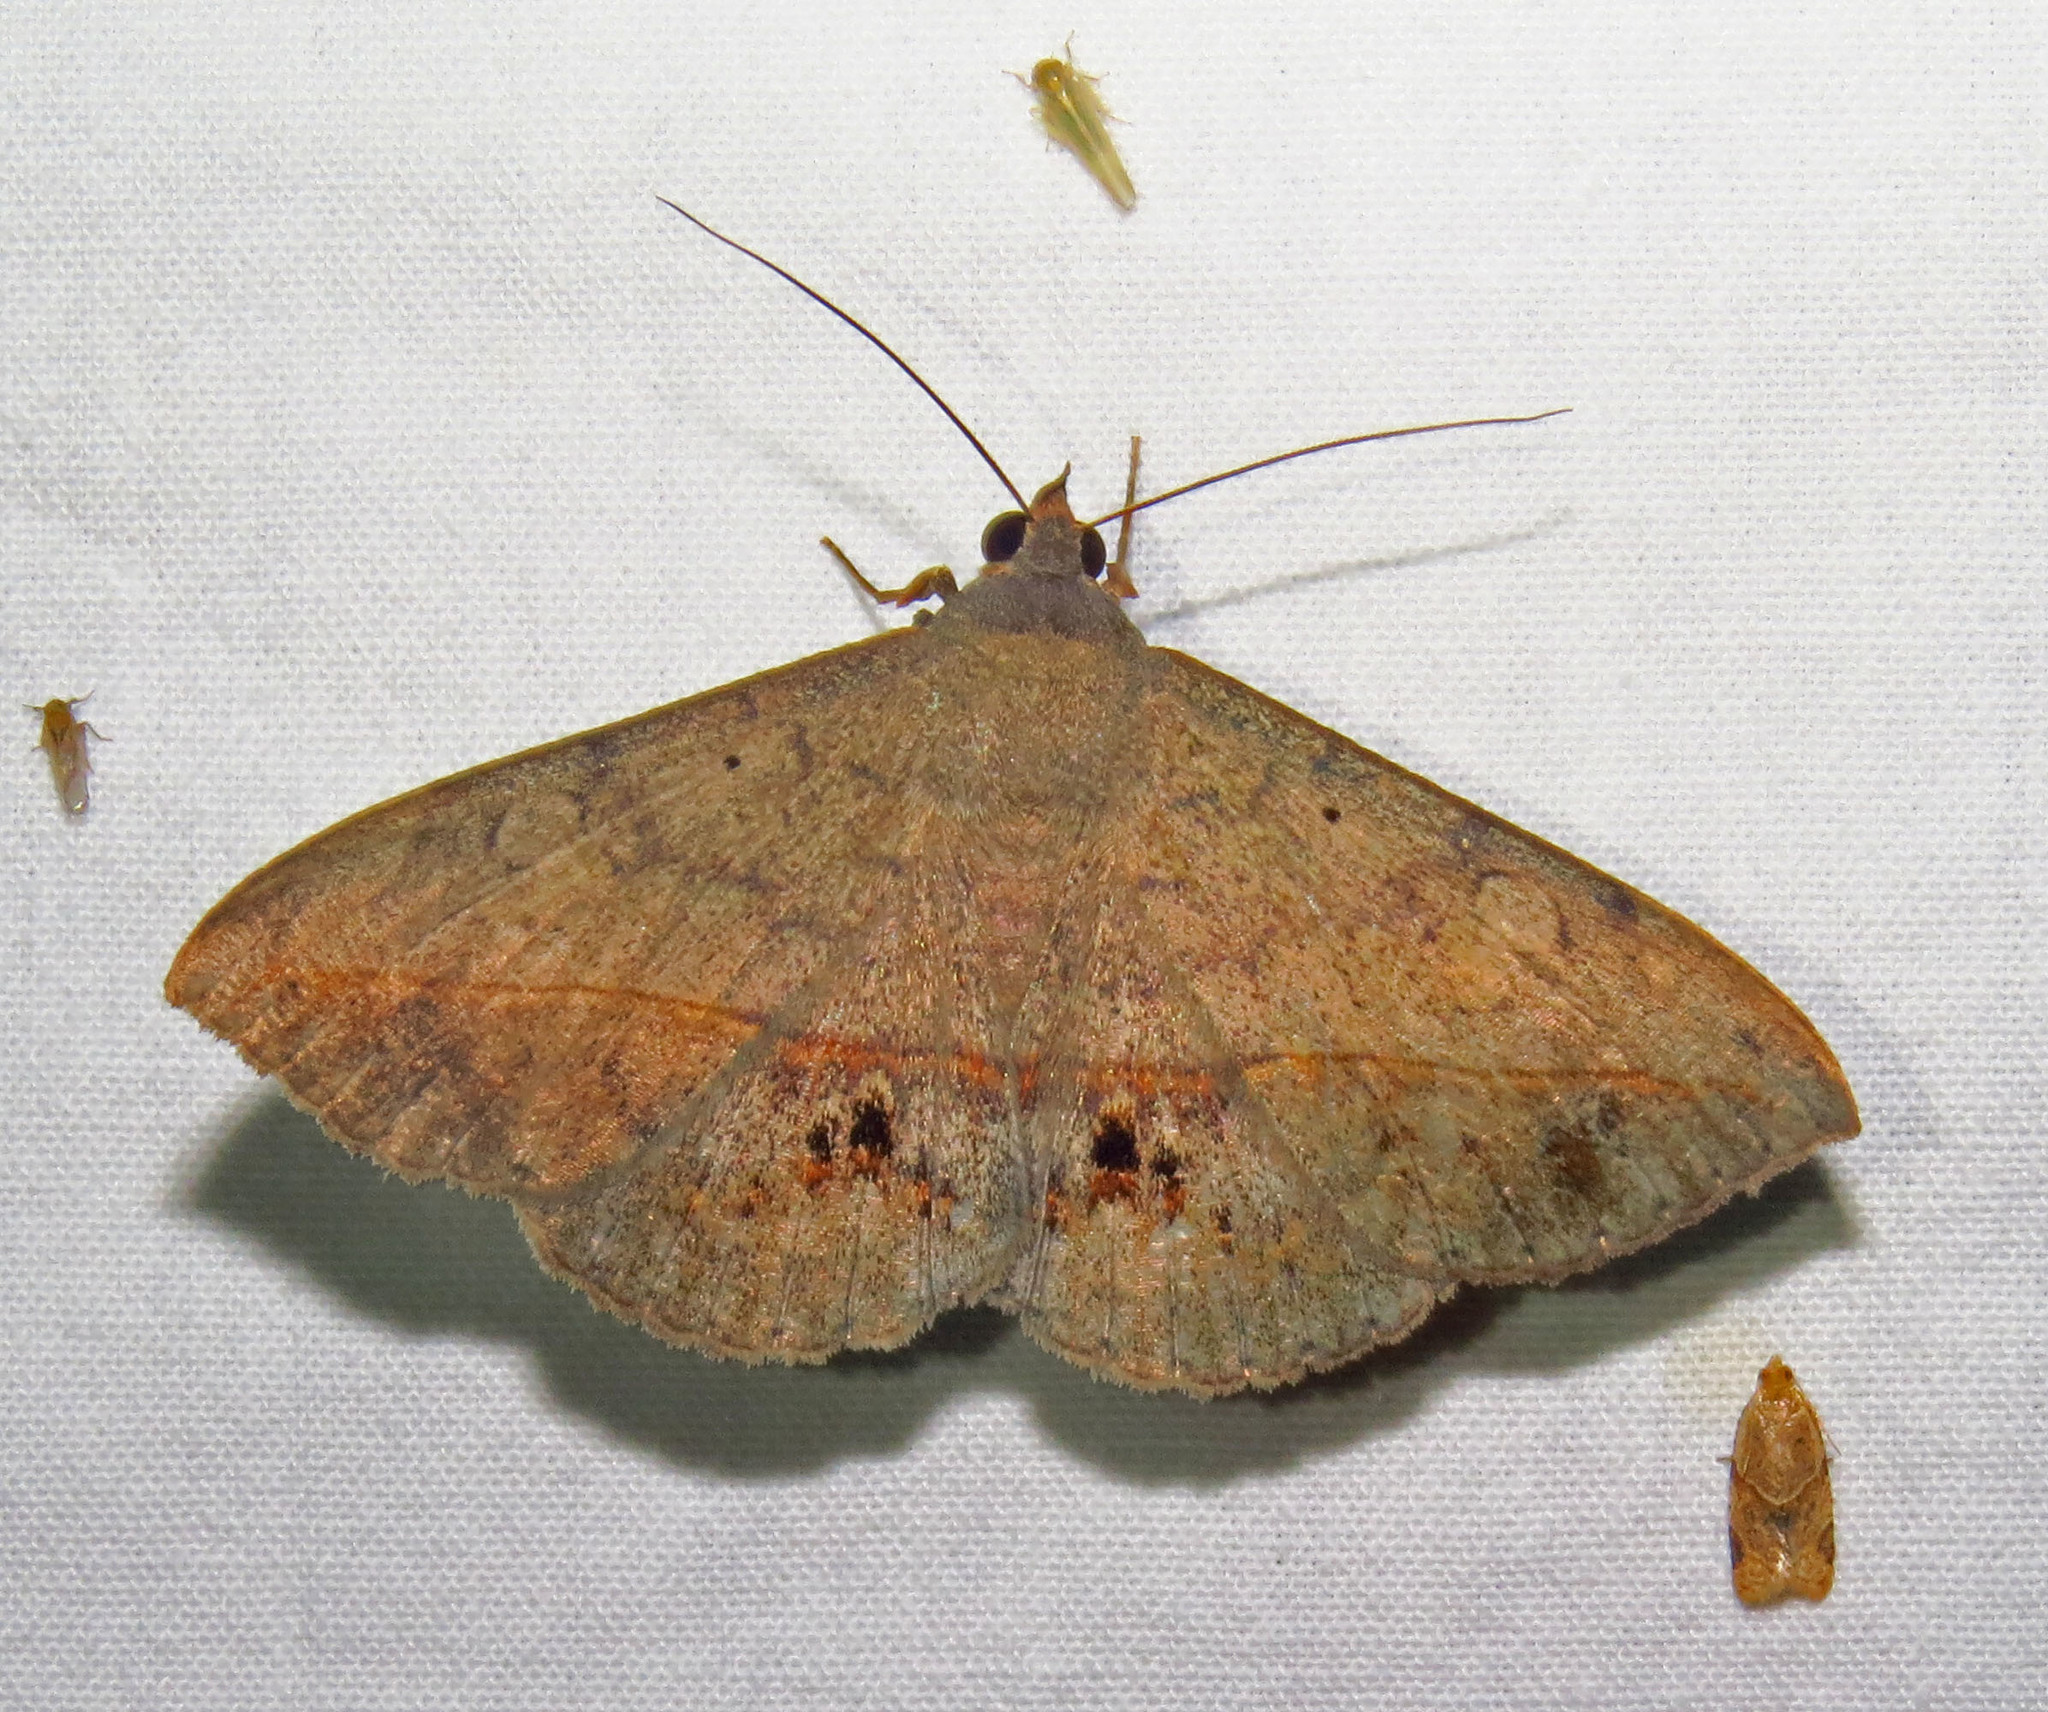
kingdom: Animalia
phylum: Arthropoda
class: Insecta
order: Lepidoptera
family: Erebidae
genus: Anticarsia
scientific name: Anticarsia gemmatalis
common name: Cutworm moth
